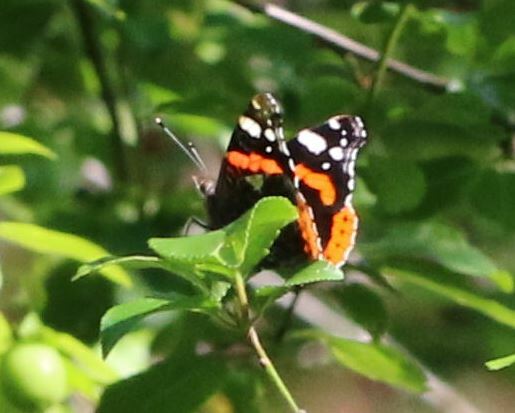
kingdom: Animalia
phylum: Arthropoda
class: Insecta
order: Lepidoptera
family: Nymphalidae
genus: Vanessa
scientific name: Vanessa atalanta
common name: Red admiral
